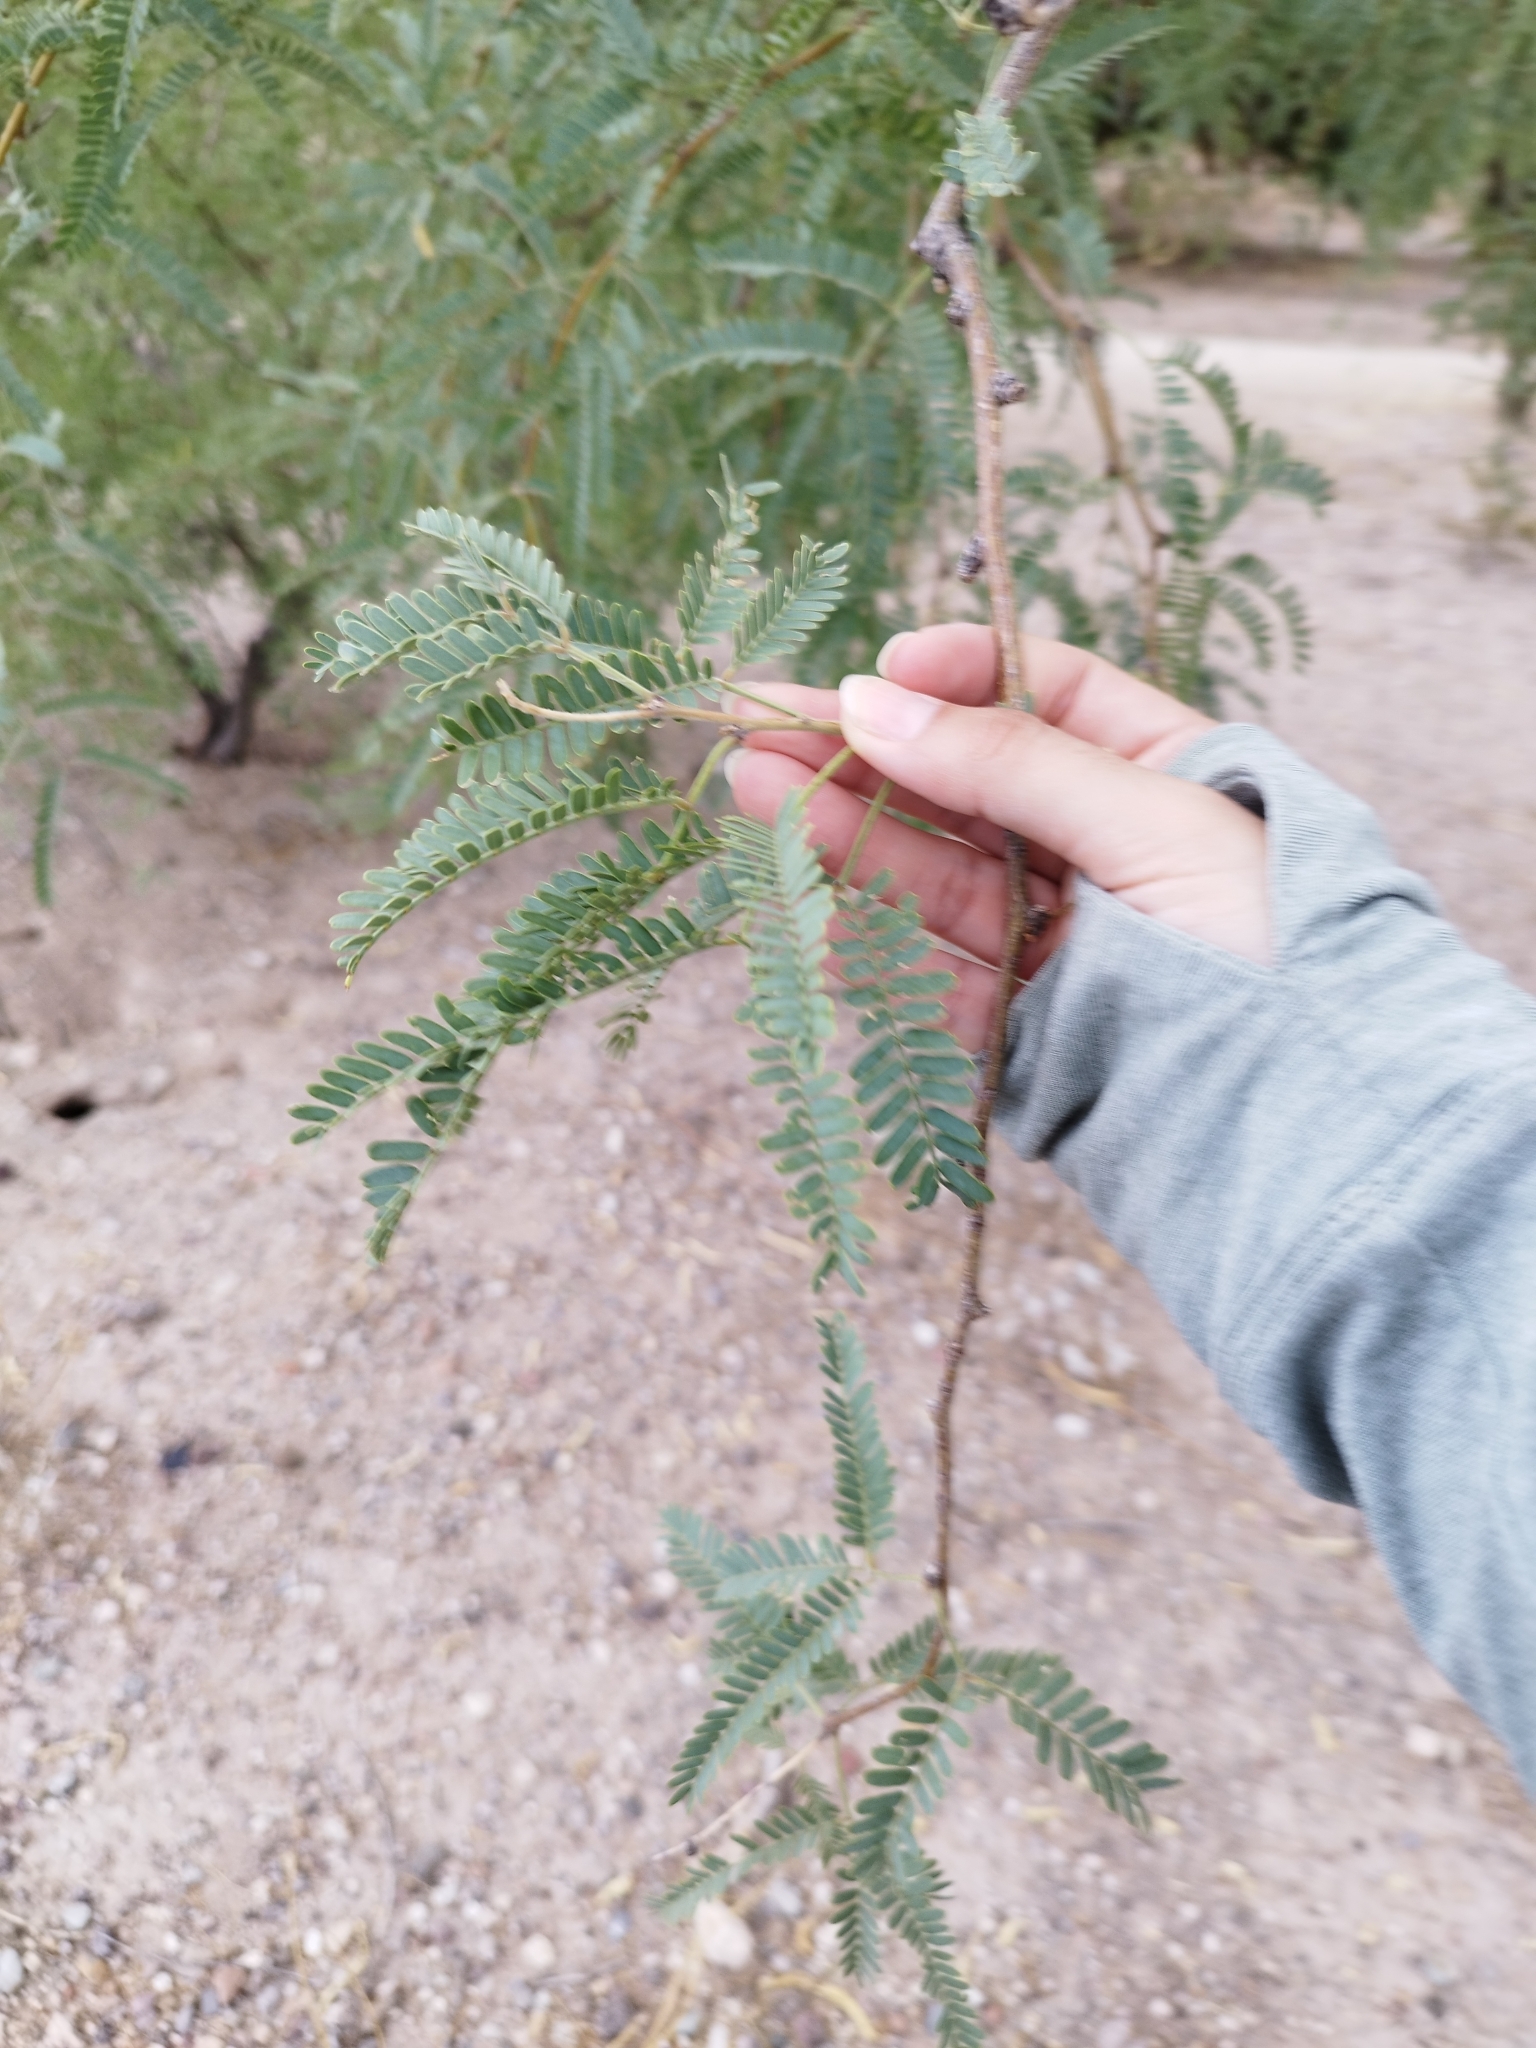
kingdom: Plantae
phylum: Tracheophyta
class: Magnoliopsida
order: Fabales
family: Fabaceae
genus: Prosopis
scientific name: Prosopis velutina
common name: Velvet mesquite
